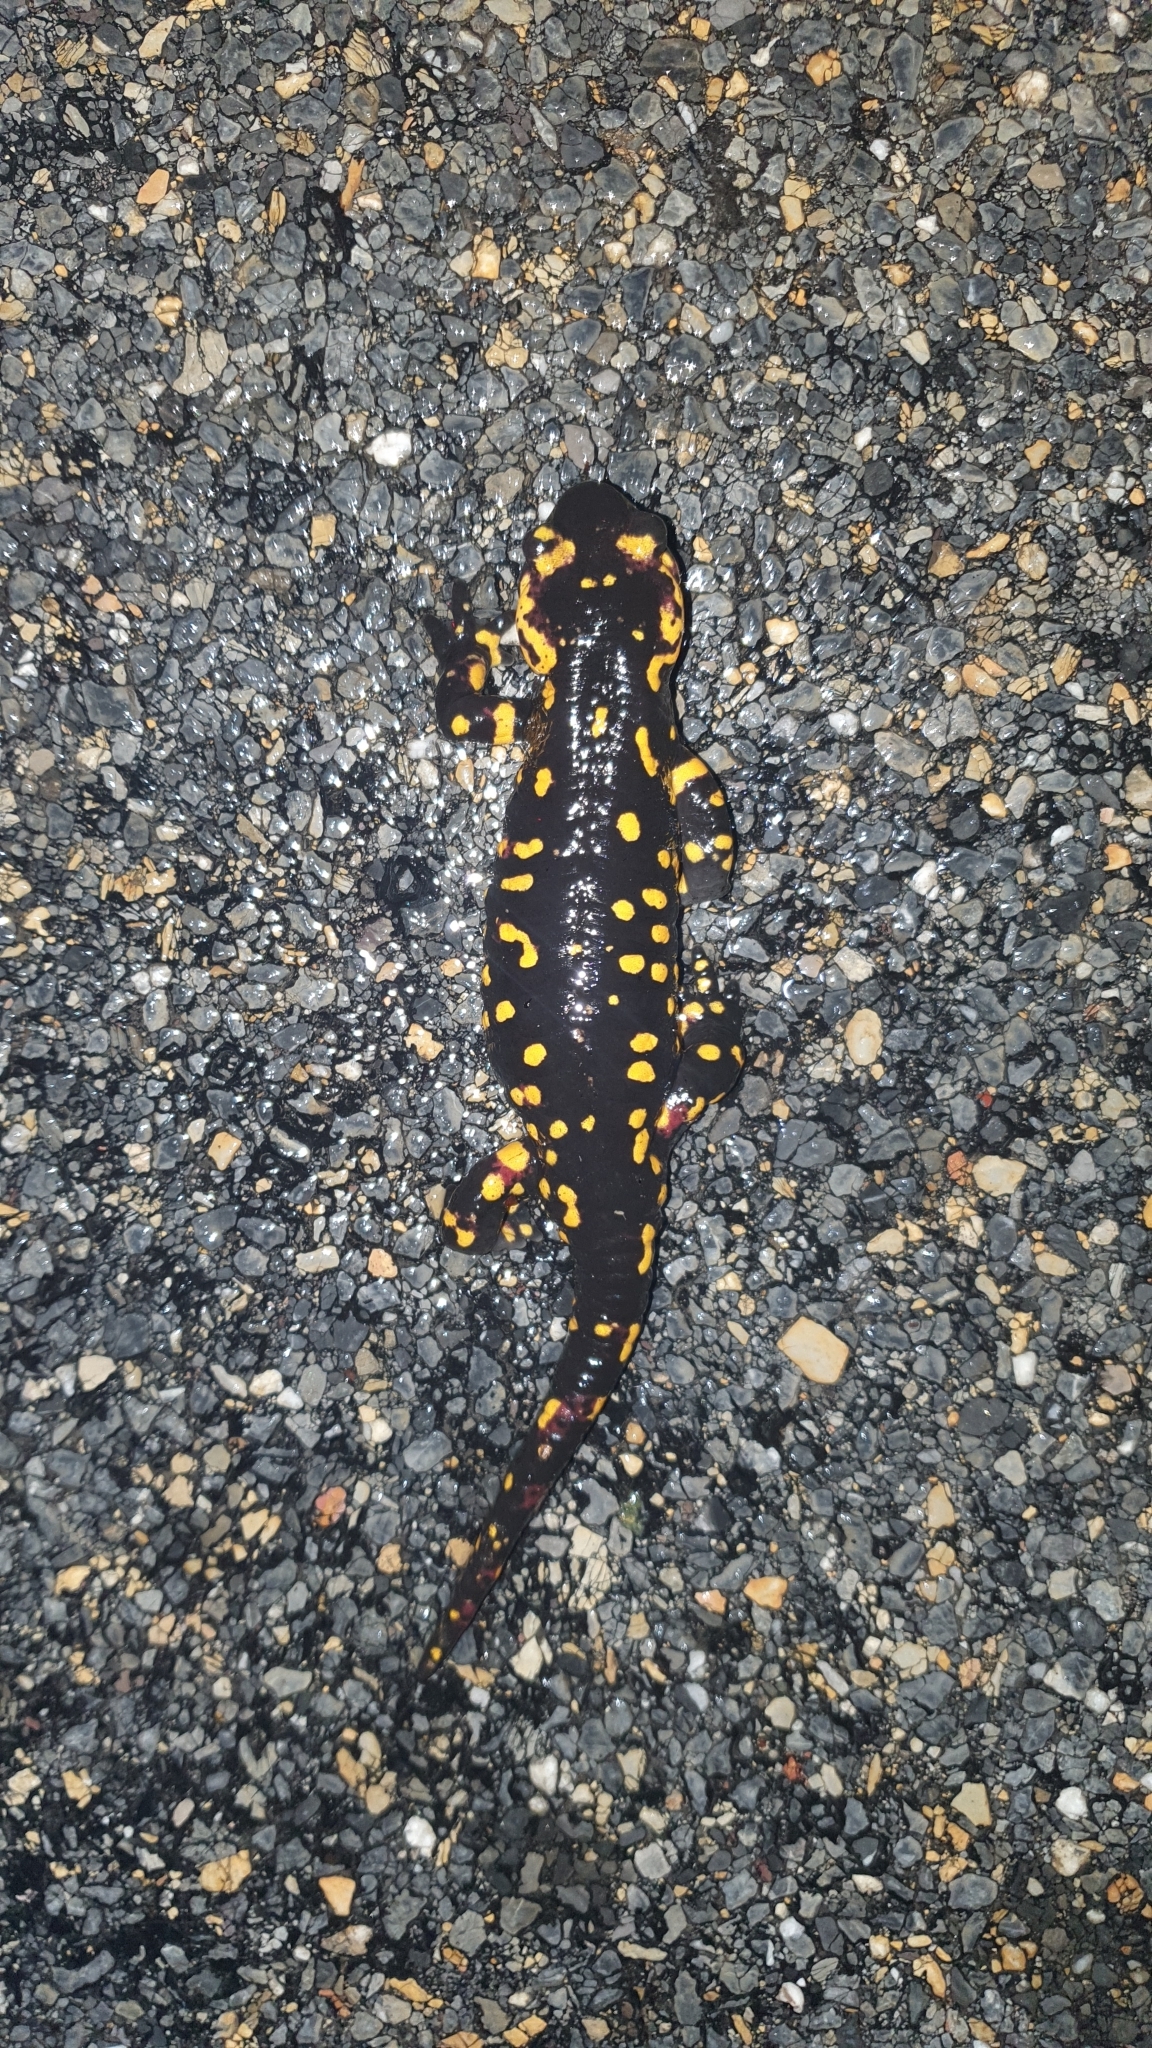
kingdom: Animalia
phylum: Chordata
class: Amphibia
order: Caudata
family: Salamandridae
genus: Salamandra
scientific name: Salamandra salamandra
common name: Fire salamander
